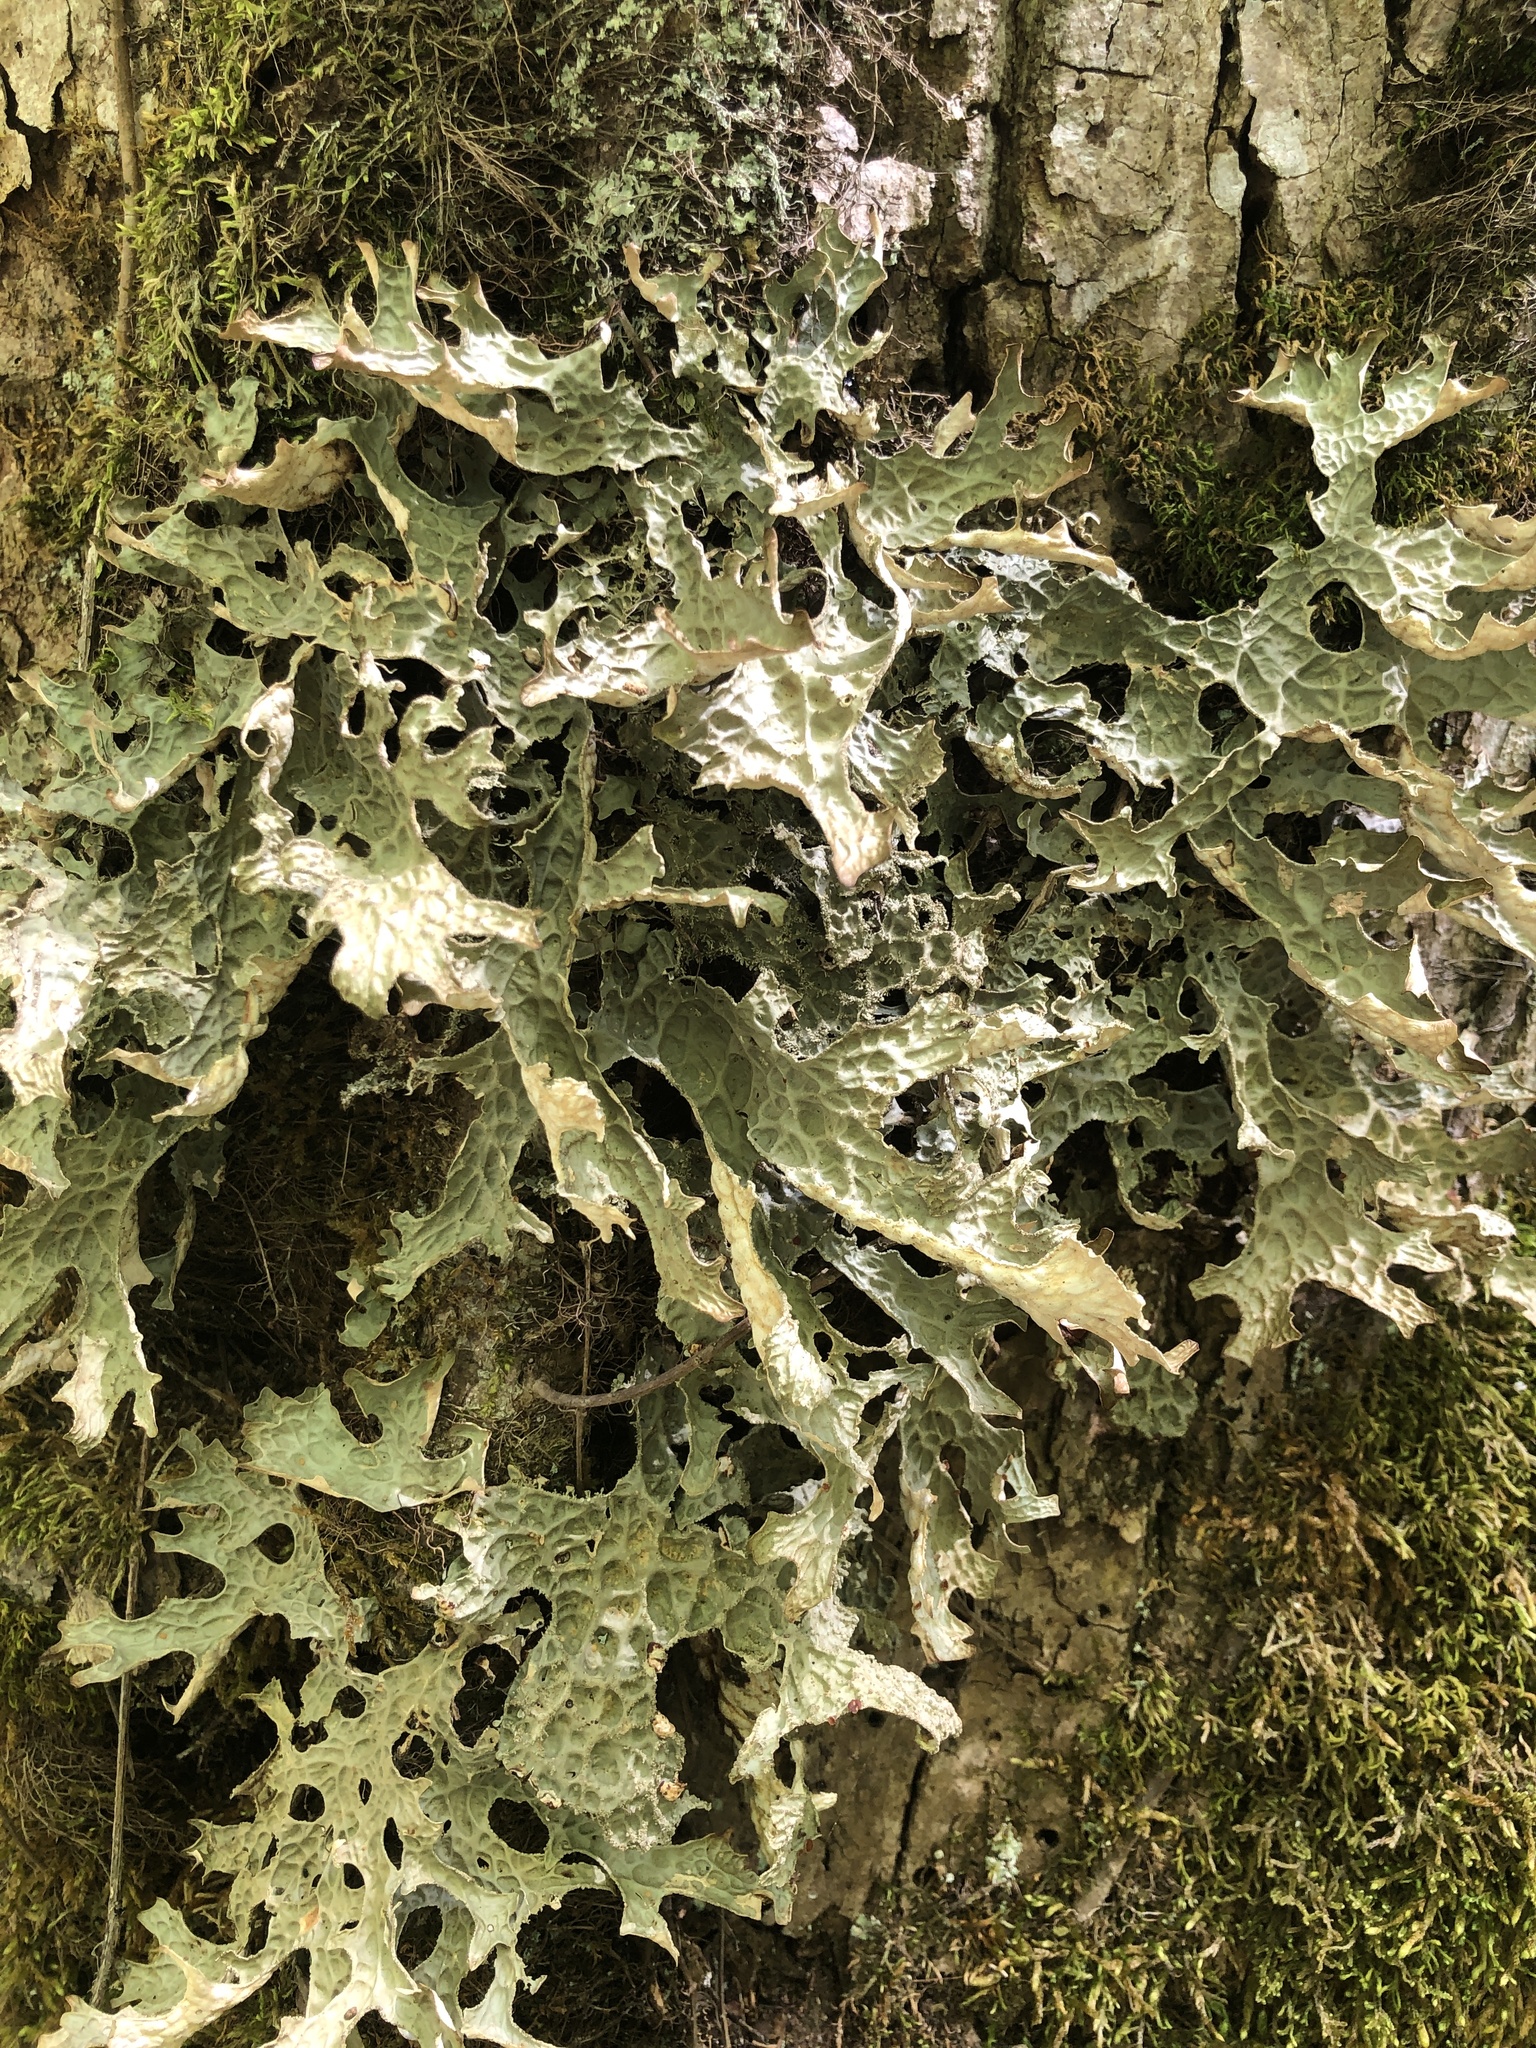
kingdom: Fungi
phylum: Ascomycota
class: Lecanoromycetes
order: Peltigerales
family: Lobariaceae
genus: Lobaria
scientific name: Lobaria pulmonaria
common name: Lungwort
